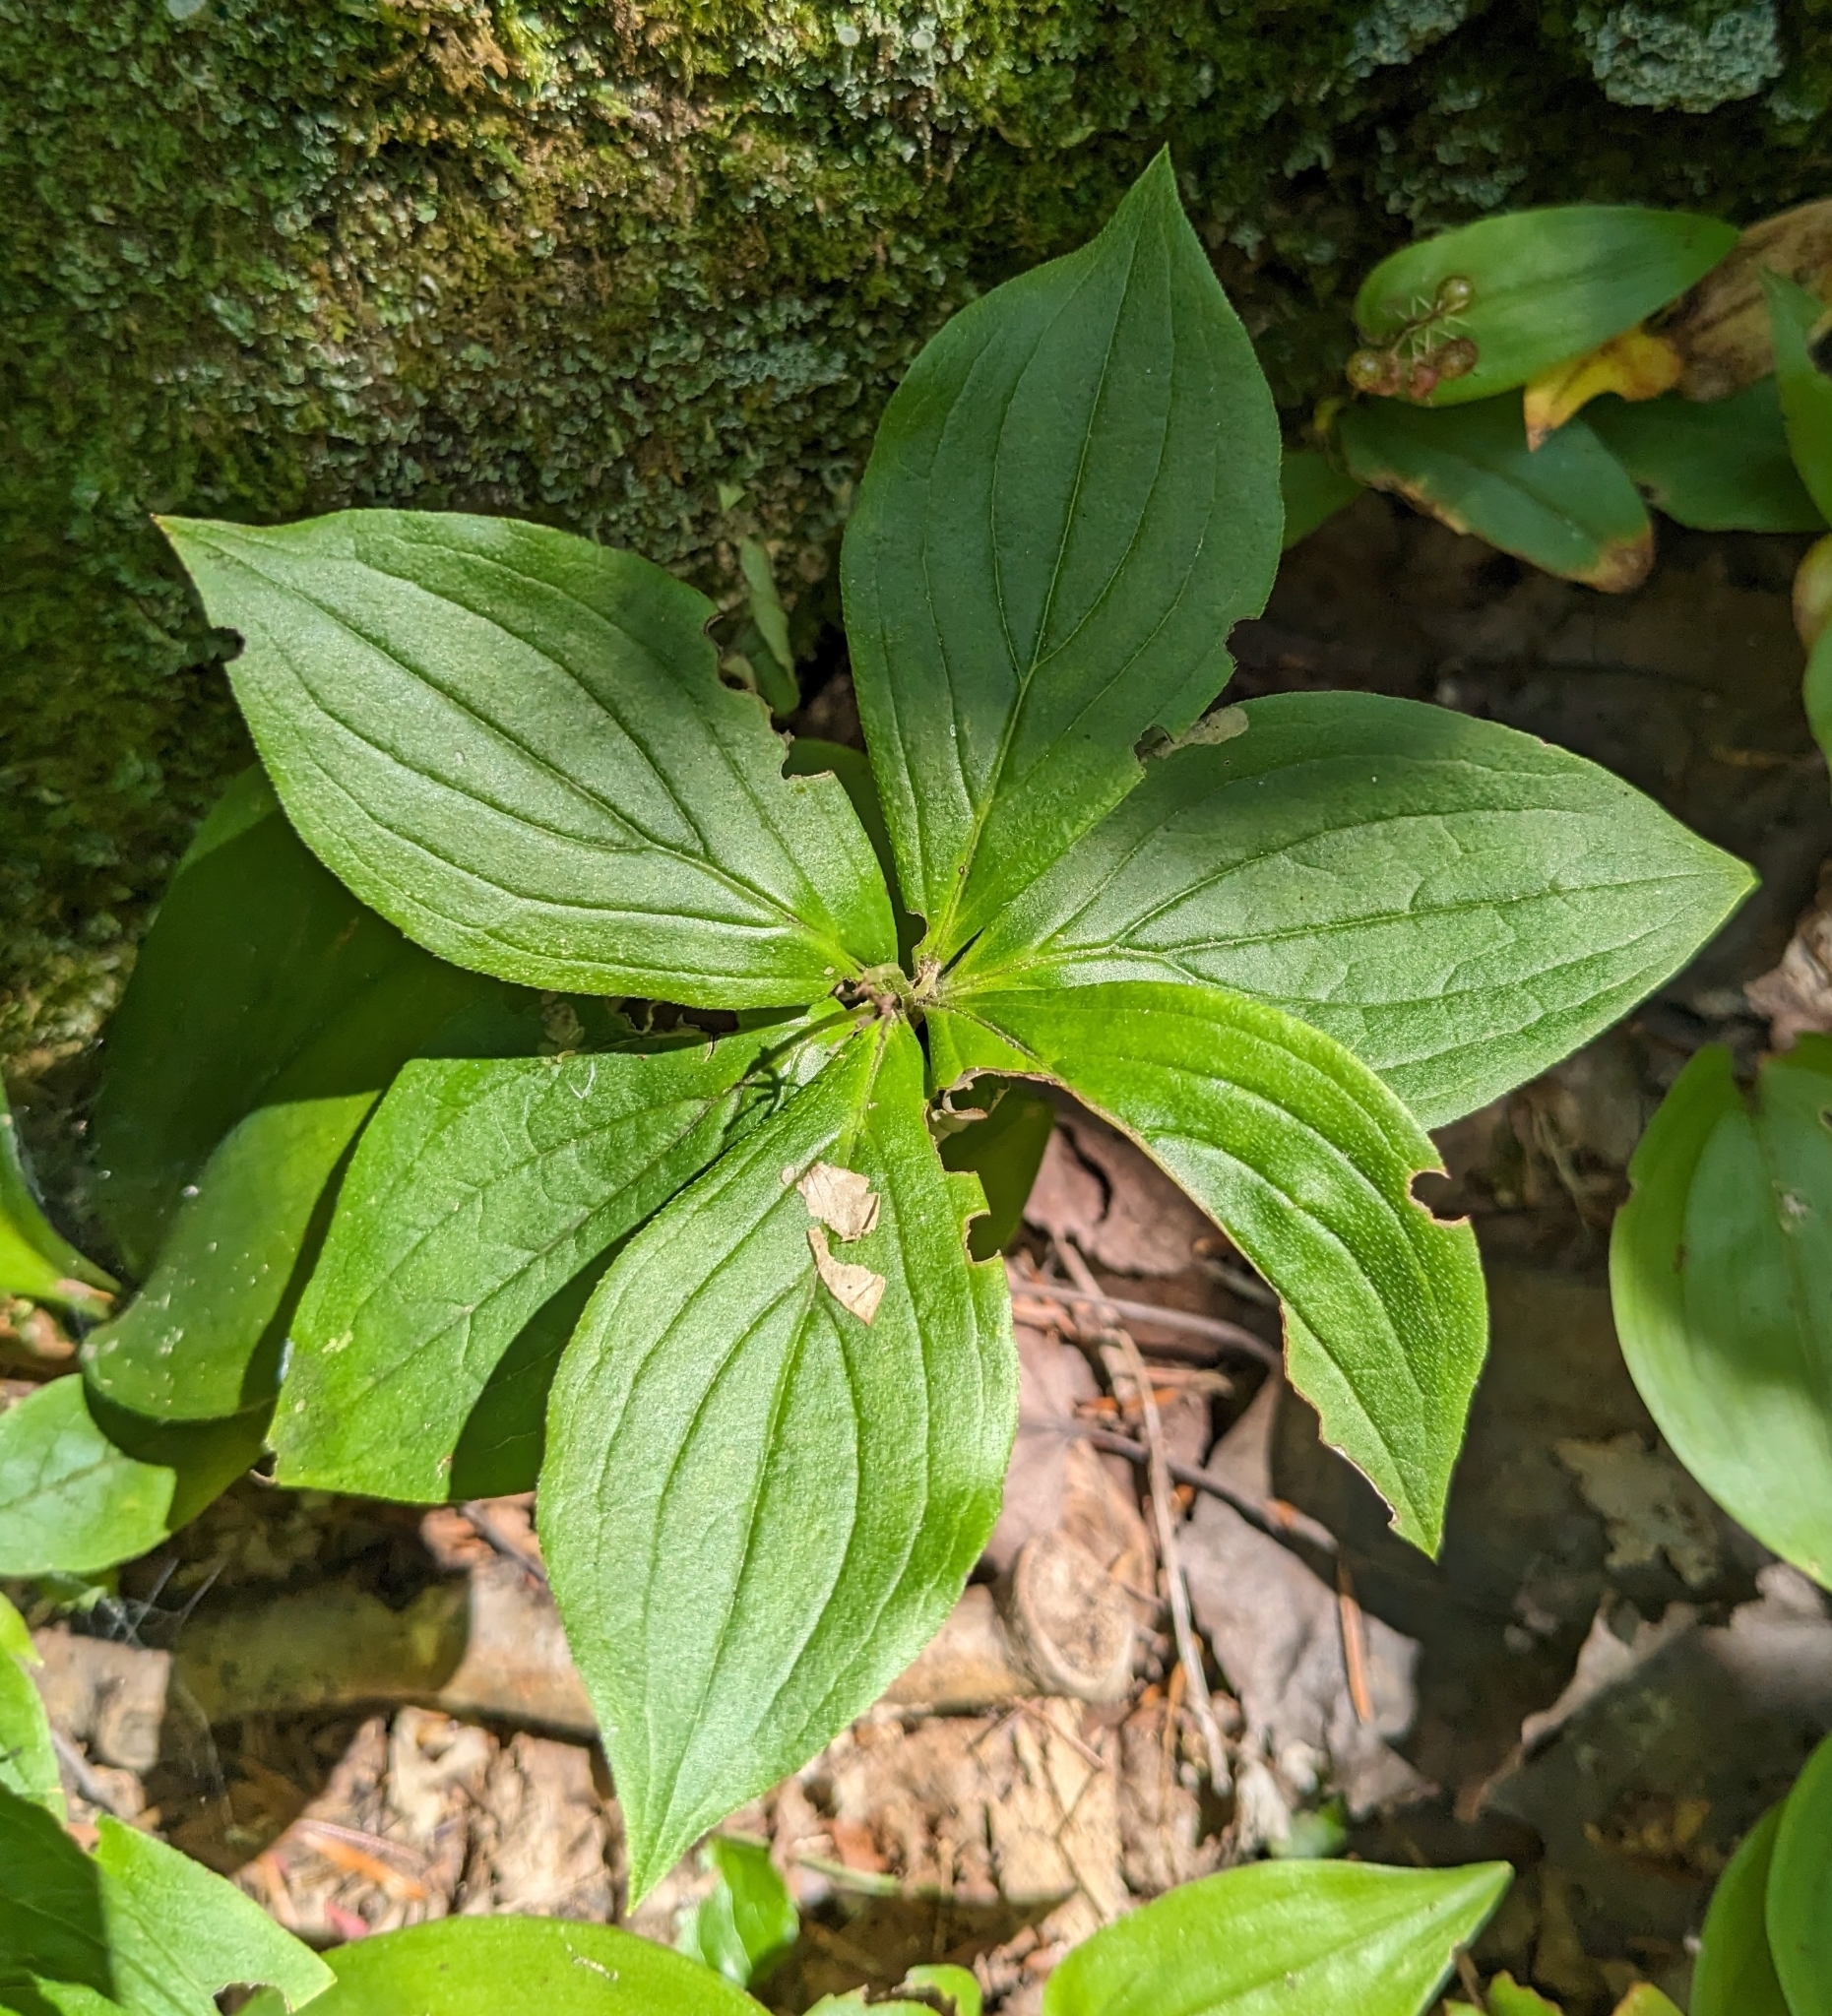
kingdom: Plantae
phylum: Tracheophyta
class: Magnoliopsida
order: Cornales
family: Cornaceae
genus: Cornus
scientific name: Cornus canadensis
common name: Creeping dogwood
